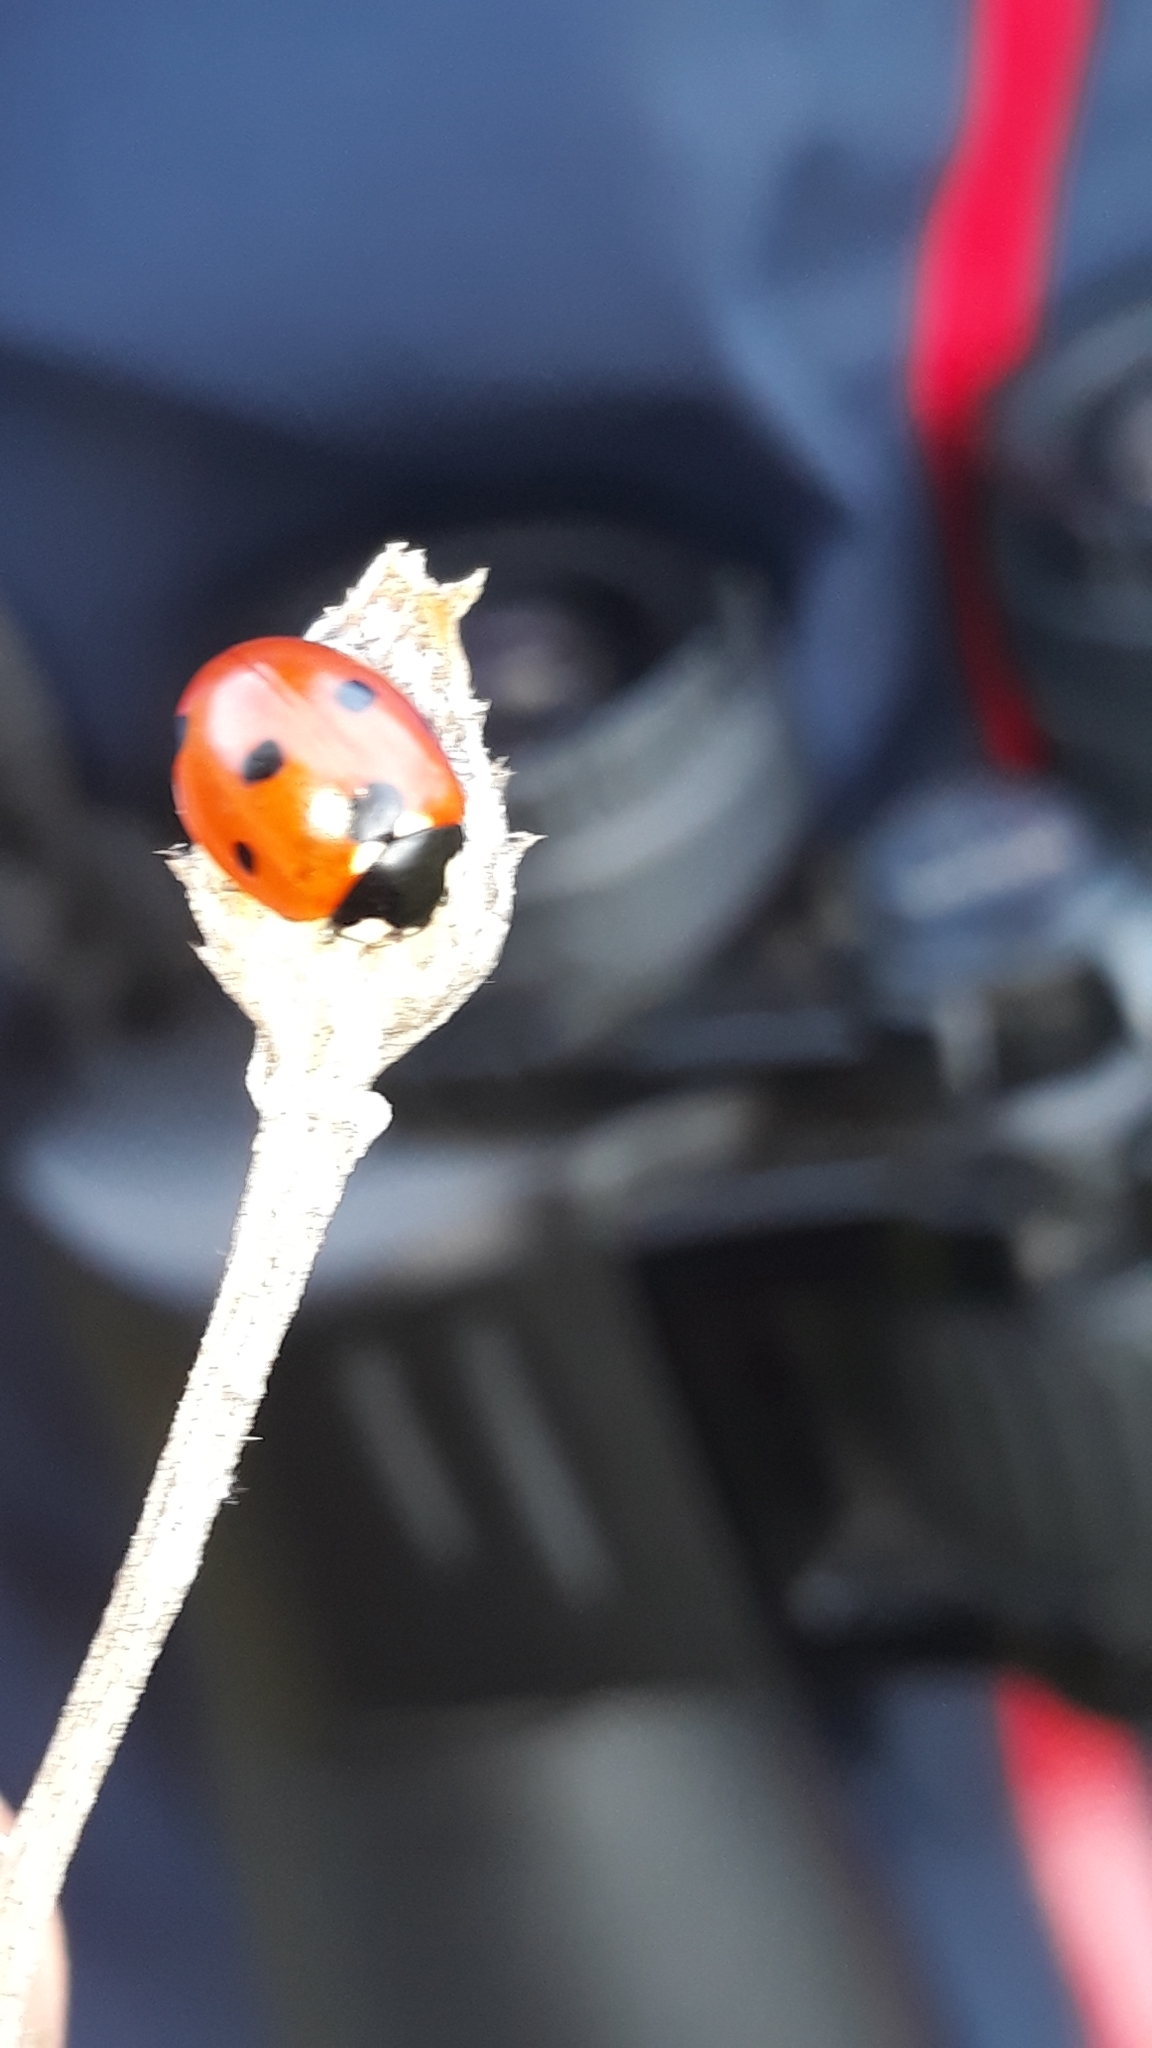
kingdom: Animalia
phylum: Arthropoda
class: Insecta
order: Coleoptera
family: Coccinellidae
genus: Coccinella
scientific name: Coccinella septempunctata
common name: Sevenspotted lady beetle
